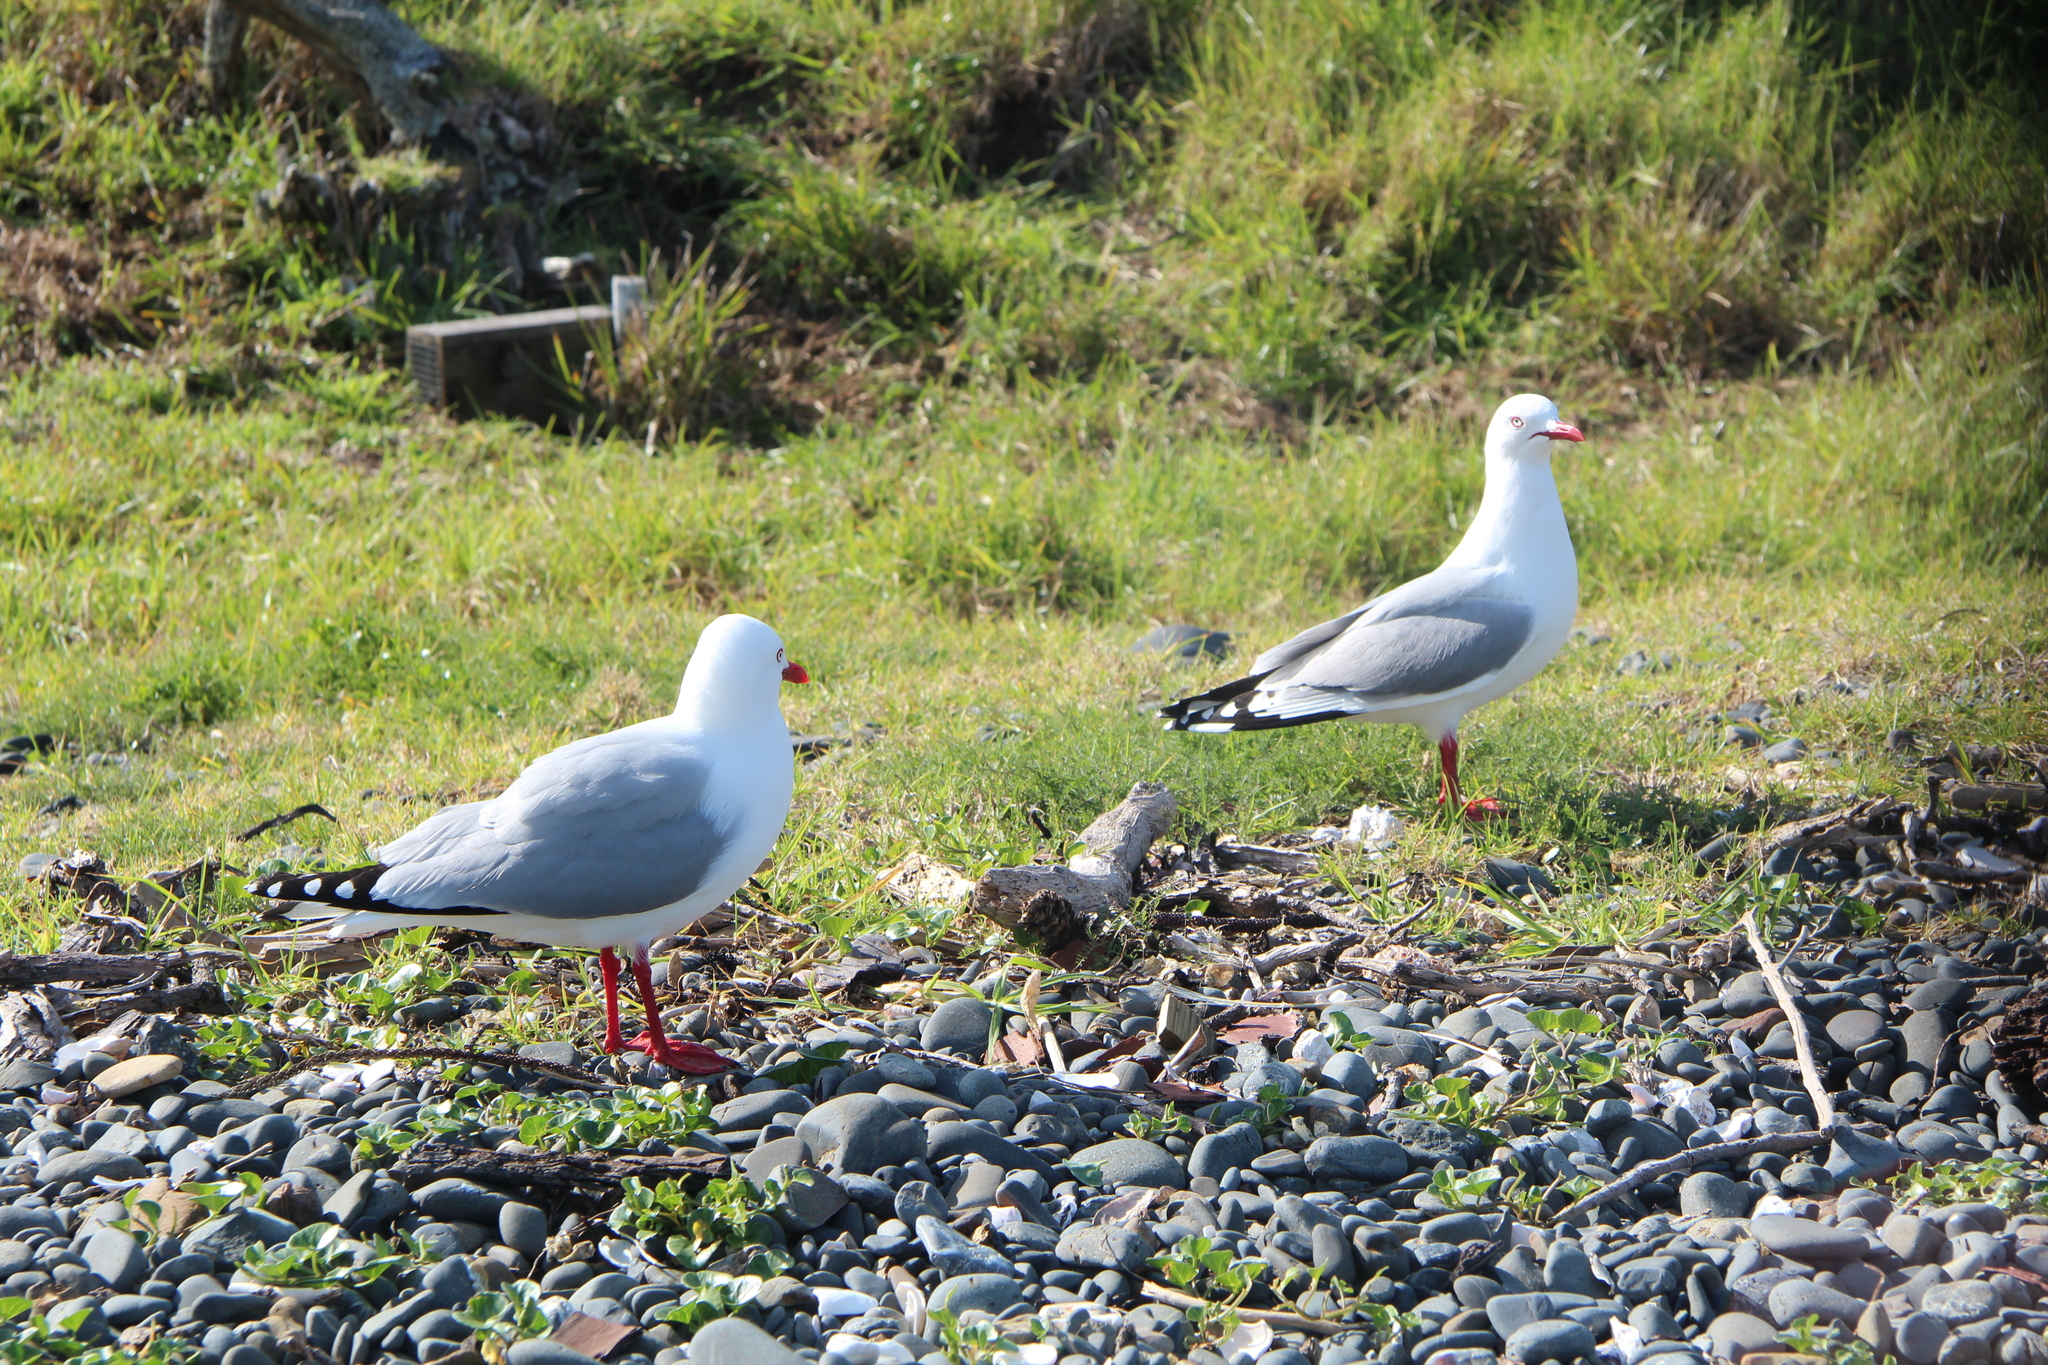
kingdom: Animalia
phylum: Chordata
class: Aves
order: Charadriiformes
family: Laridae
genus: Chroicocephalus
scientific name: Chroicocephalus novaehollandiae
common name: Silver gull
